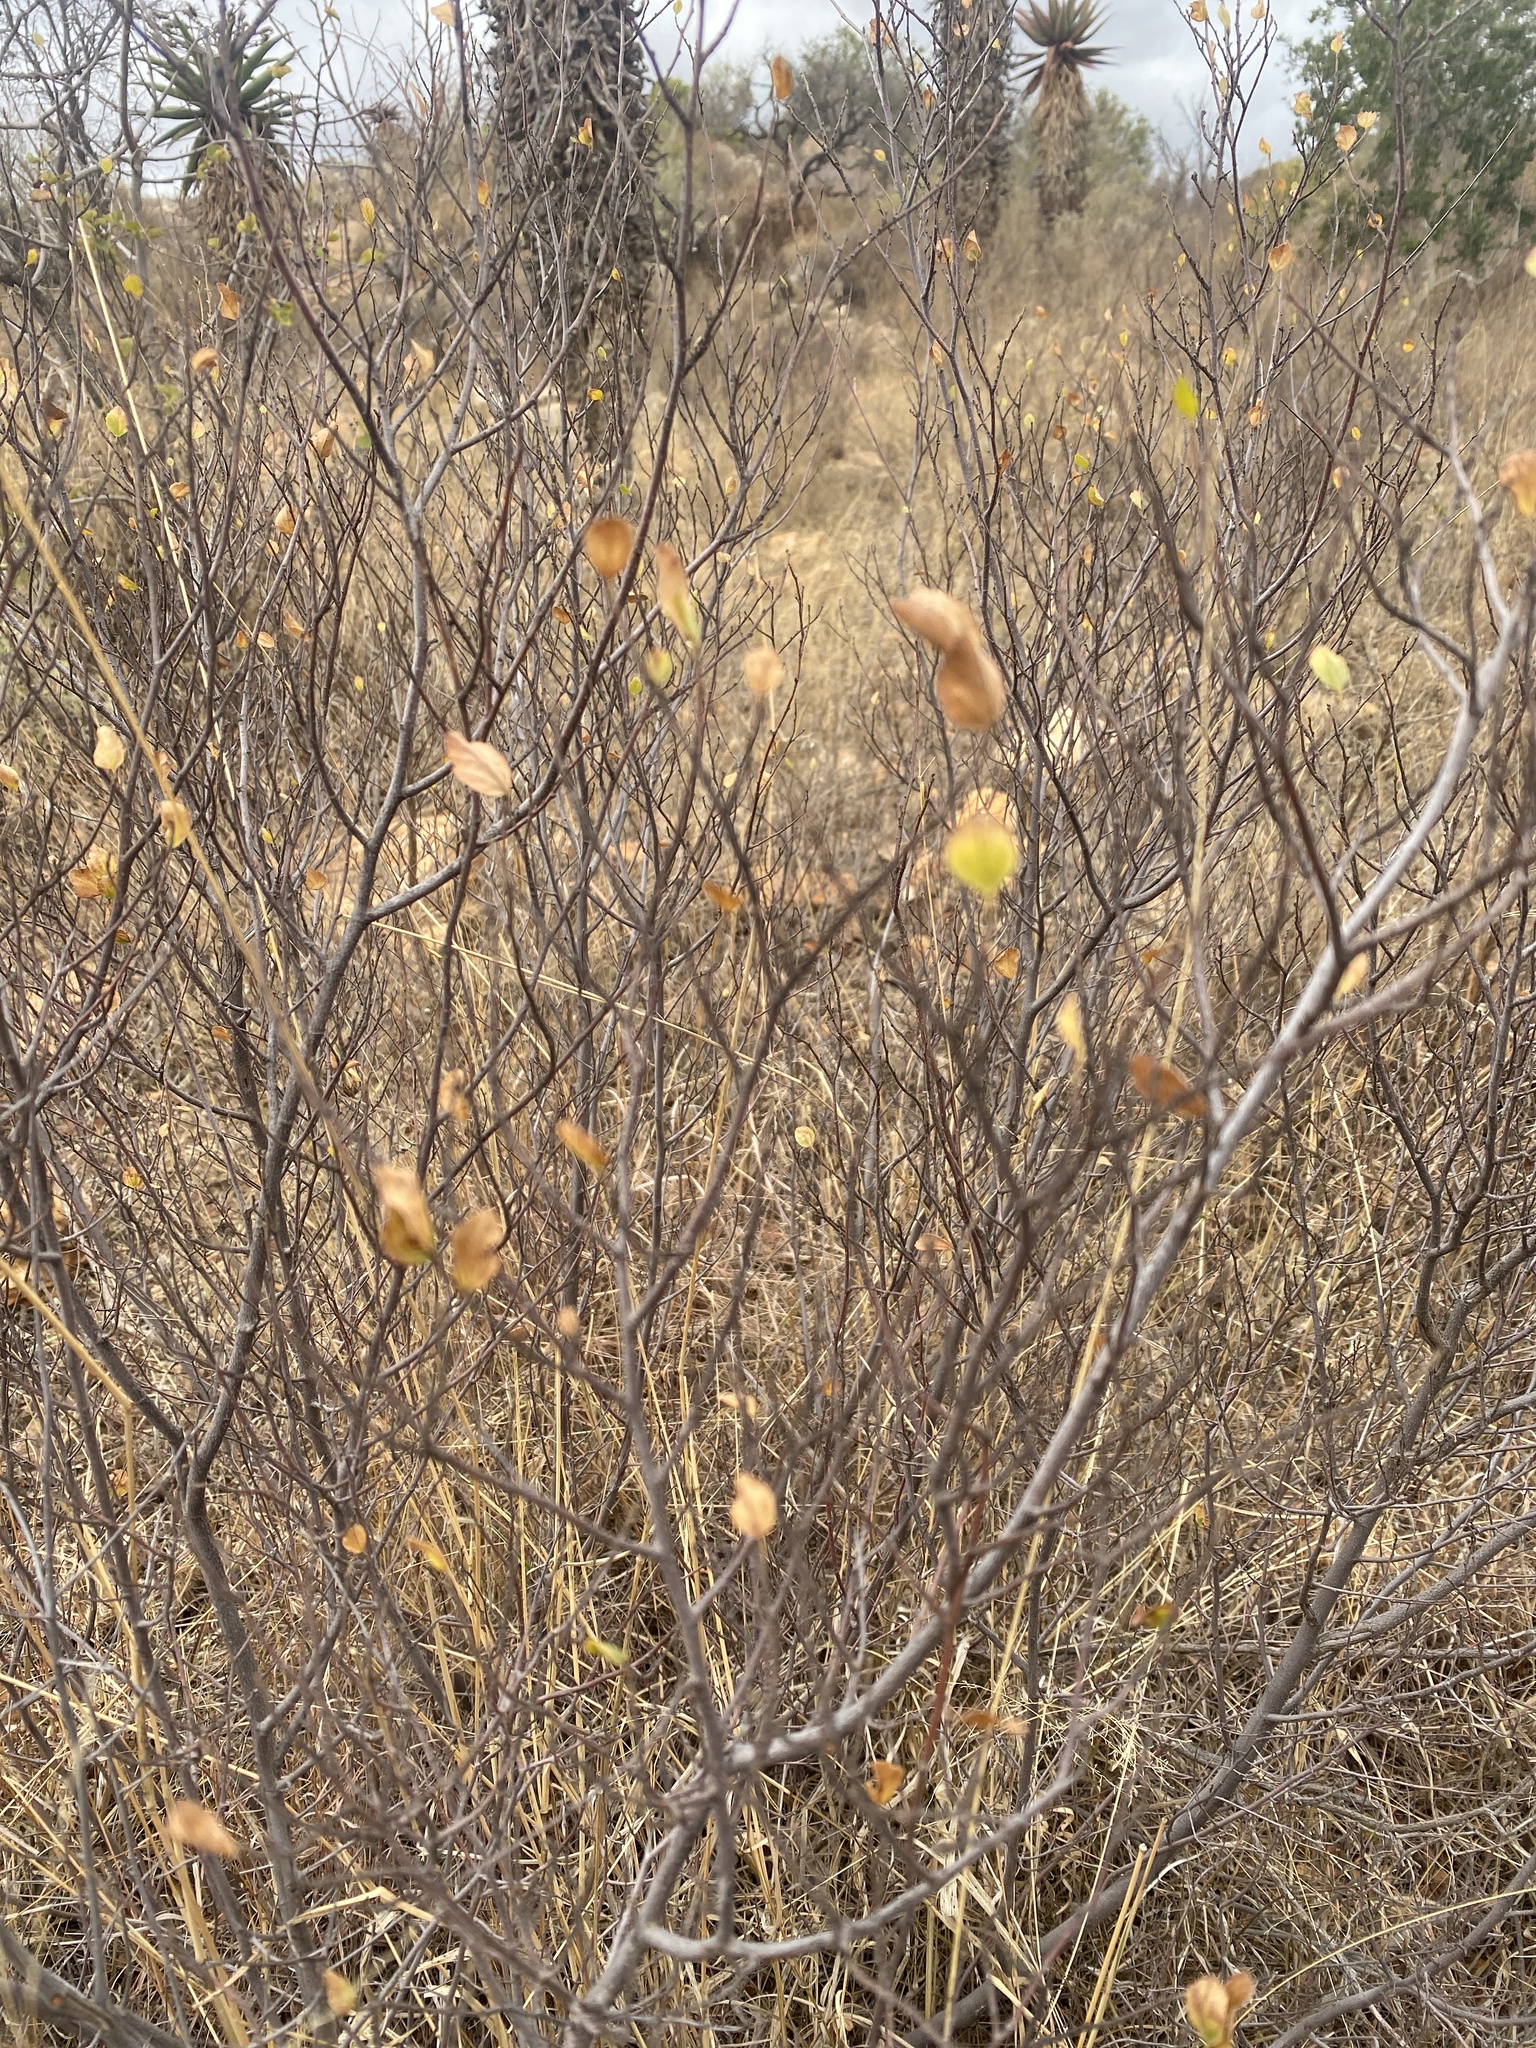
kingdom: Plantae
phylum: Tracheophyta
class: Magnoliopsida
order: Malvales
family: Malvaceae
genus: Grewia
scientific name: Grewia vernicosa
